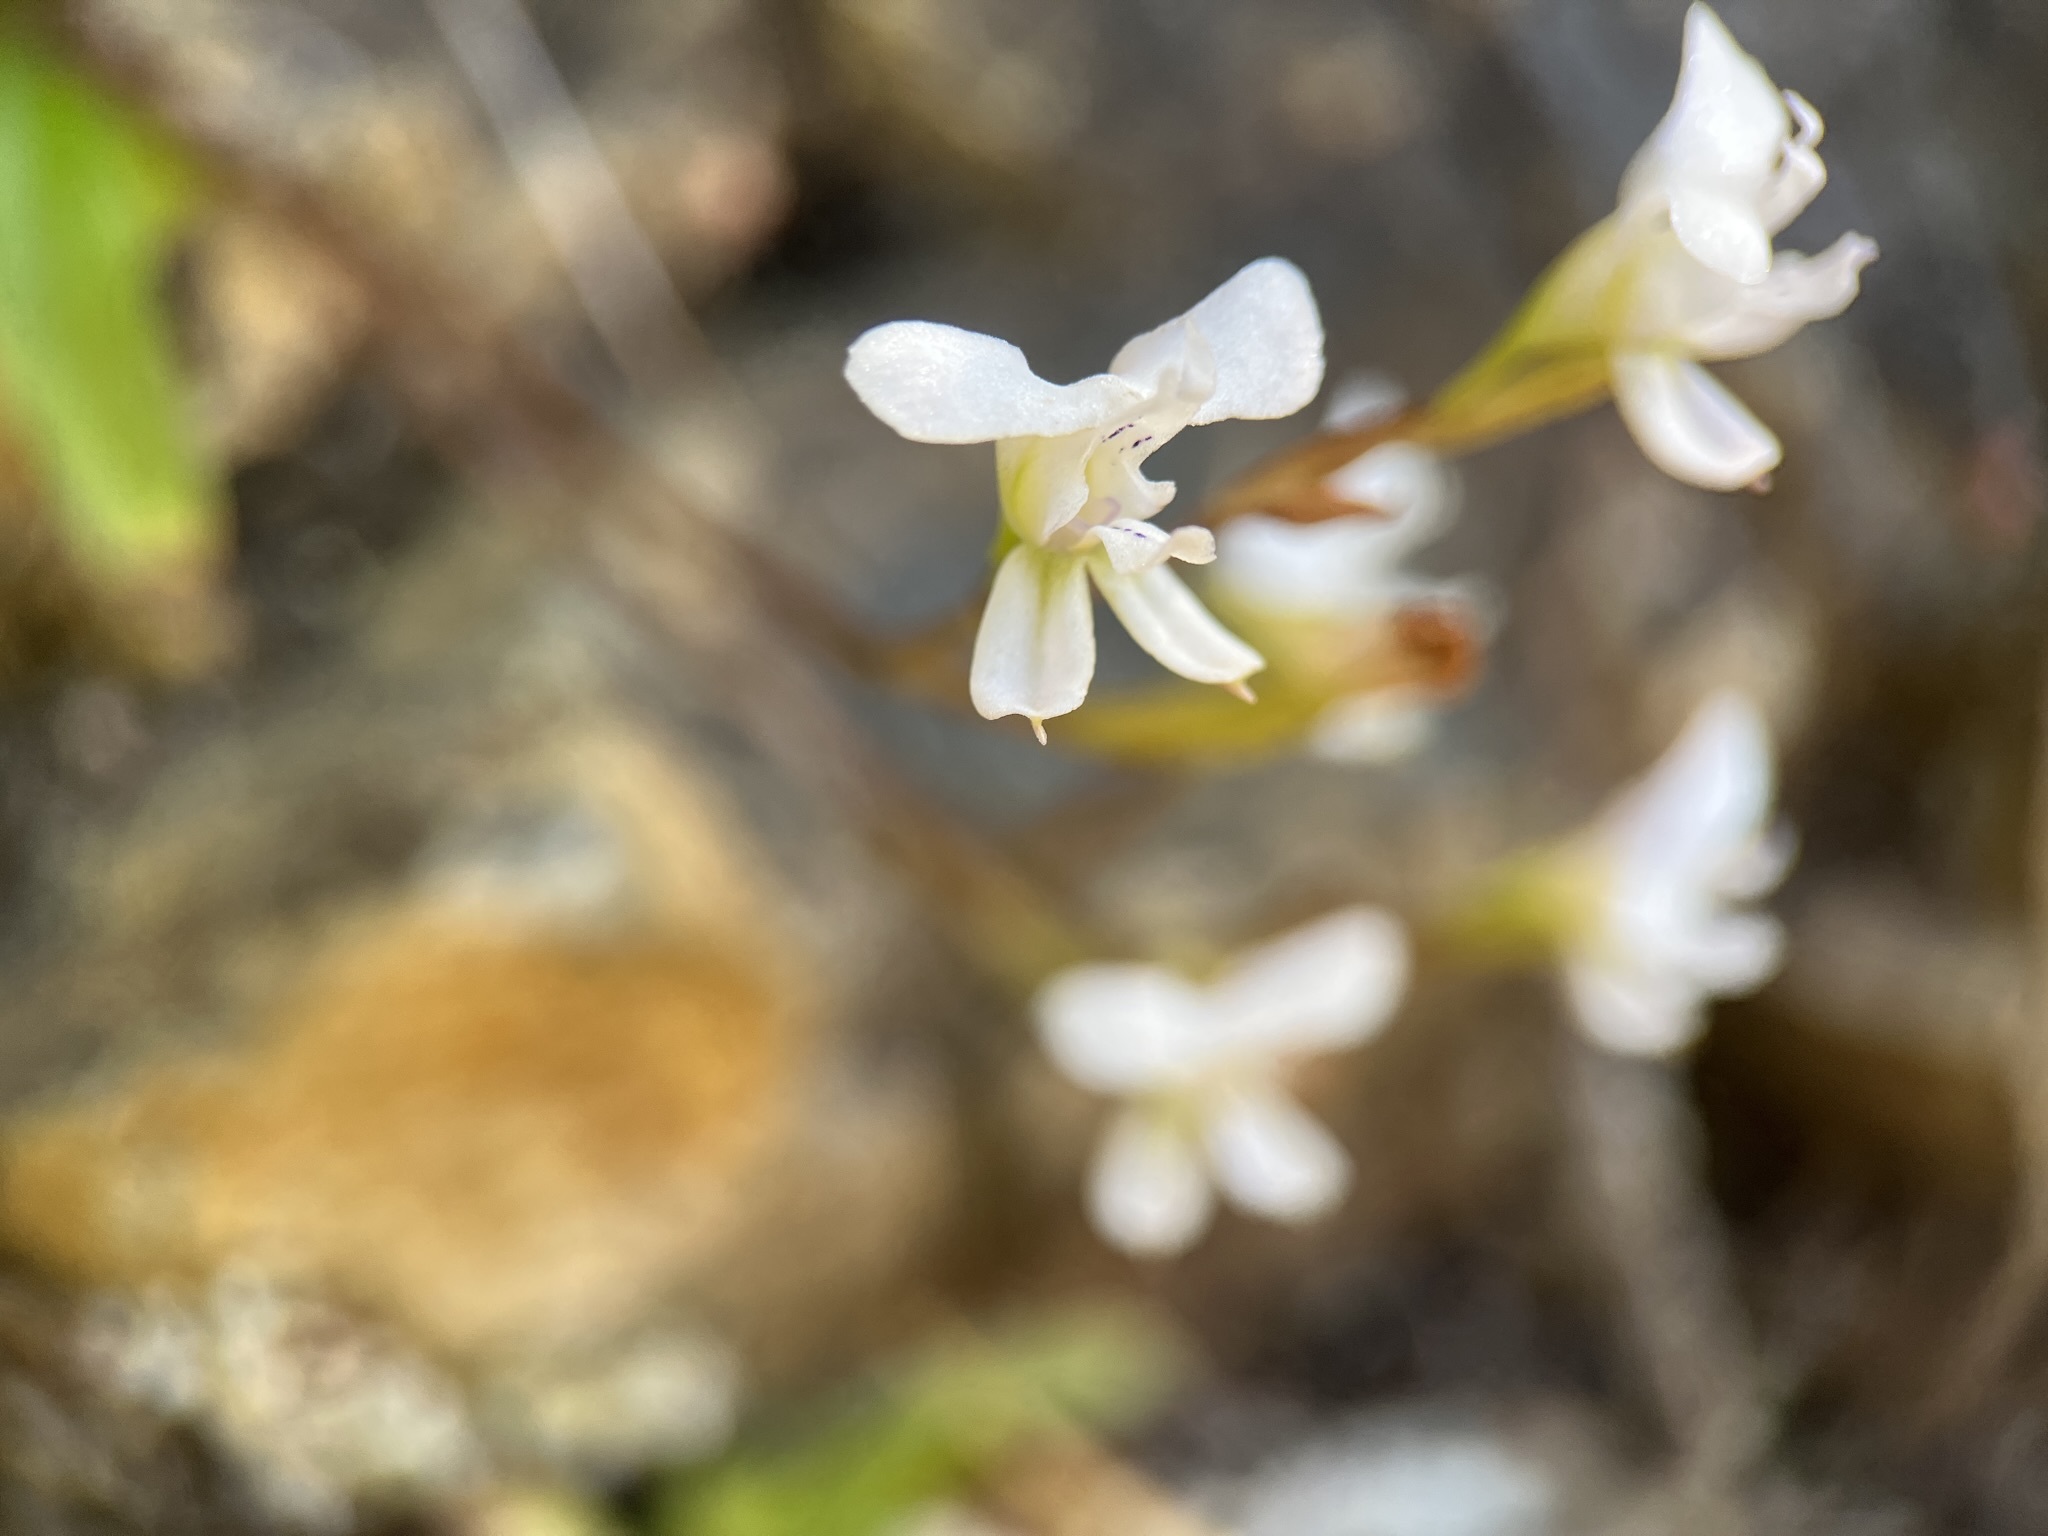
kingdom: Plantae
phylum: Tracheophyta
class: Liliopsida
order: Asparagales
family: Orchidaceae
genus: Disa
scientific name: Disa sagittalis
